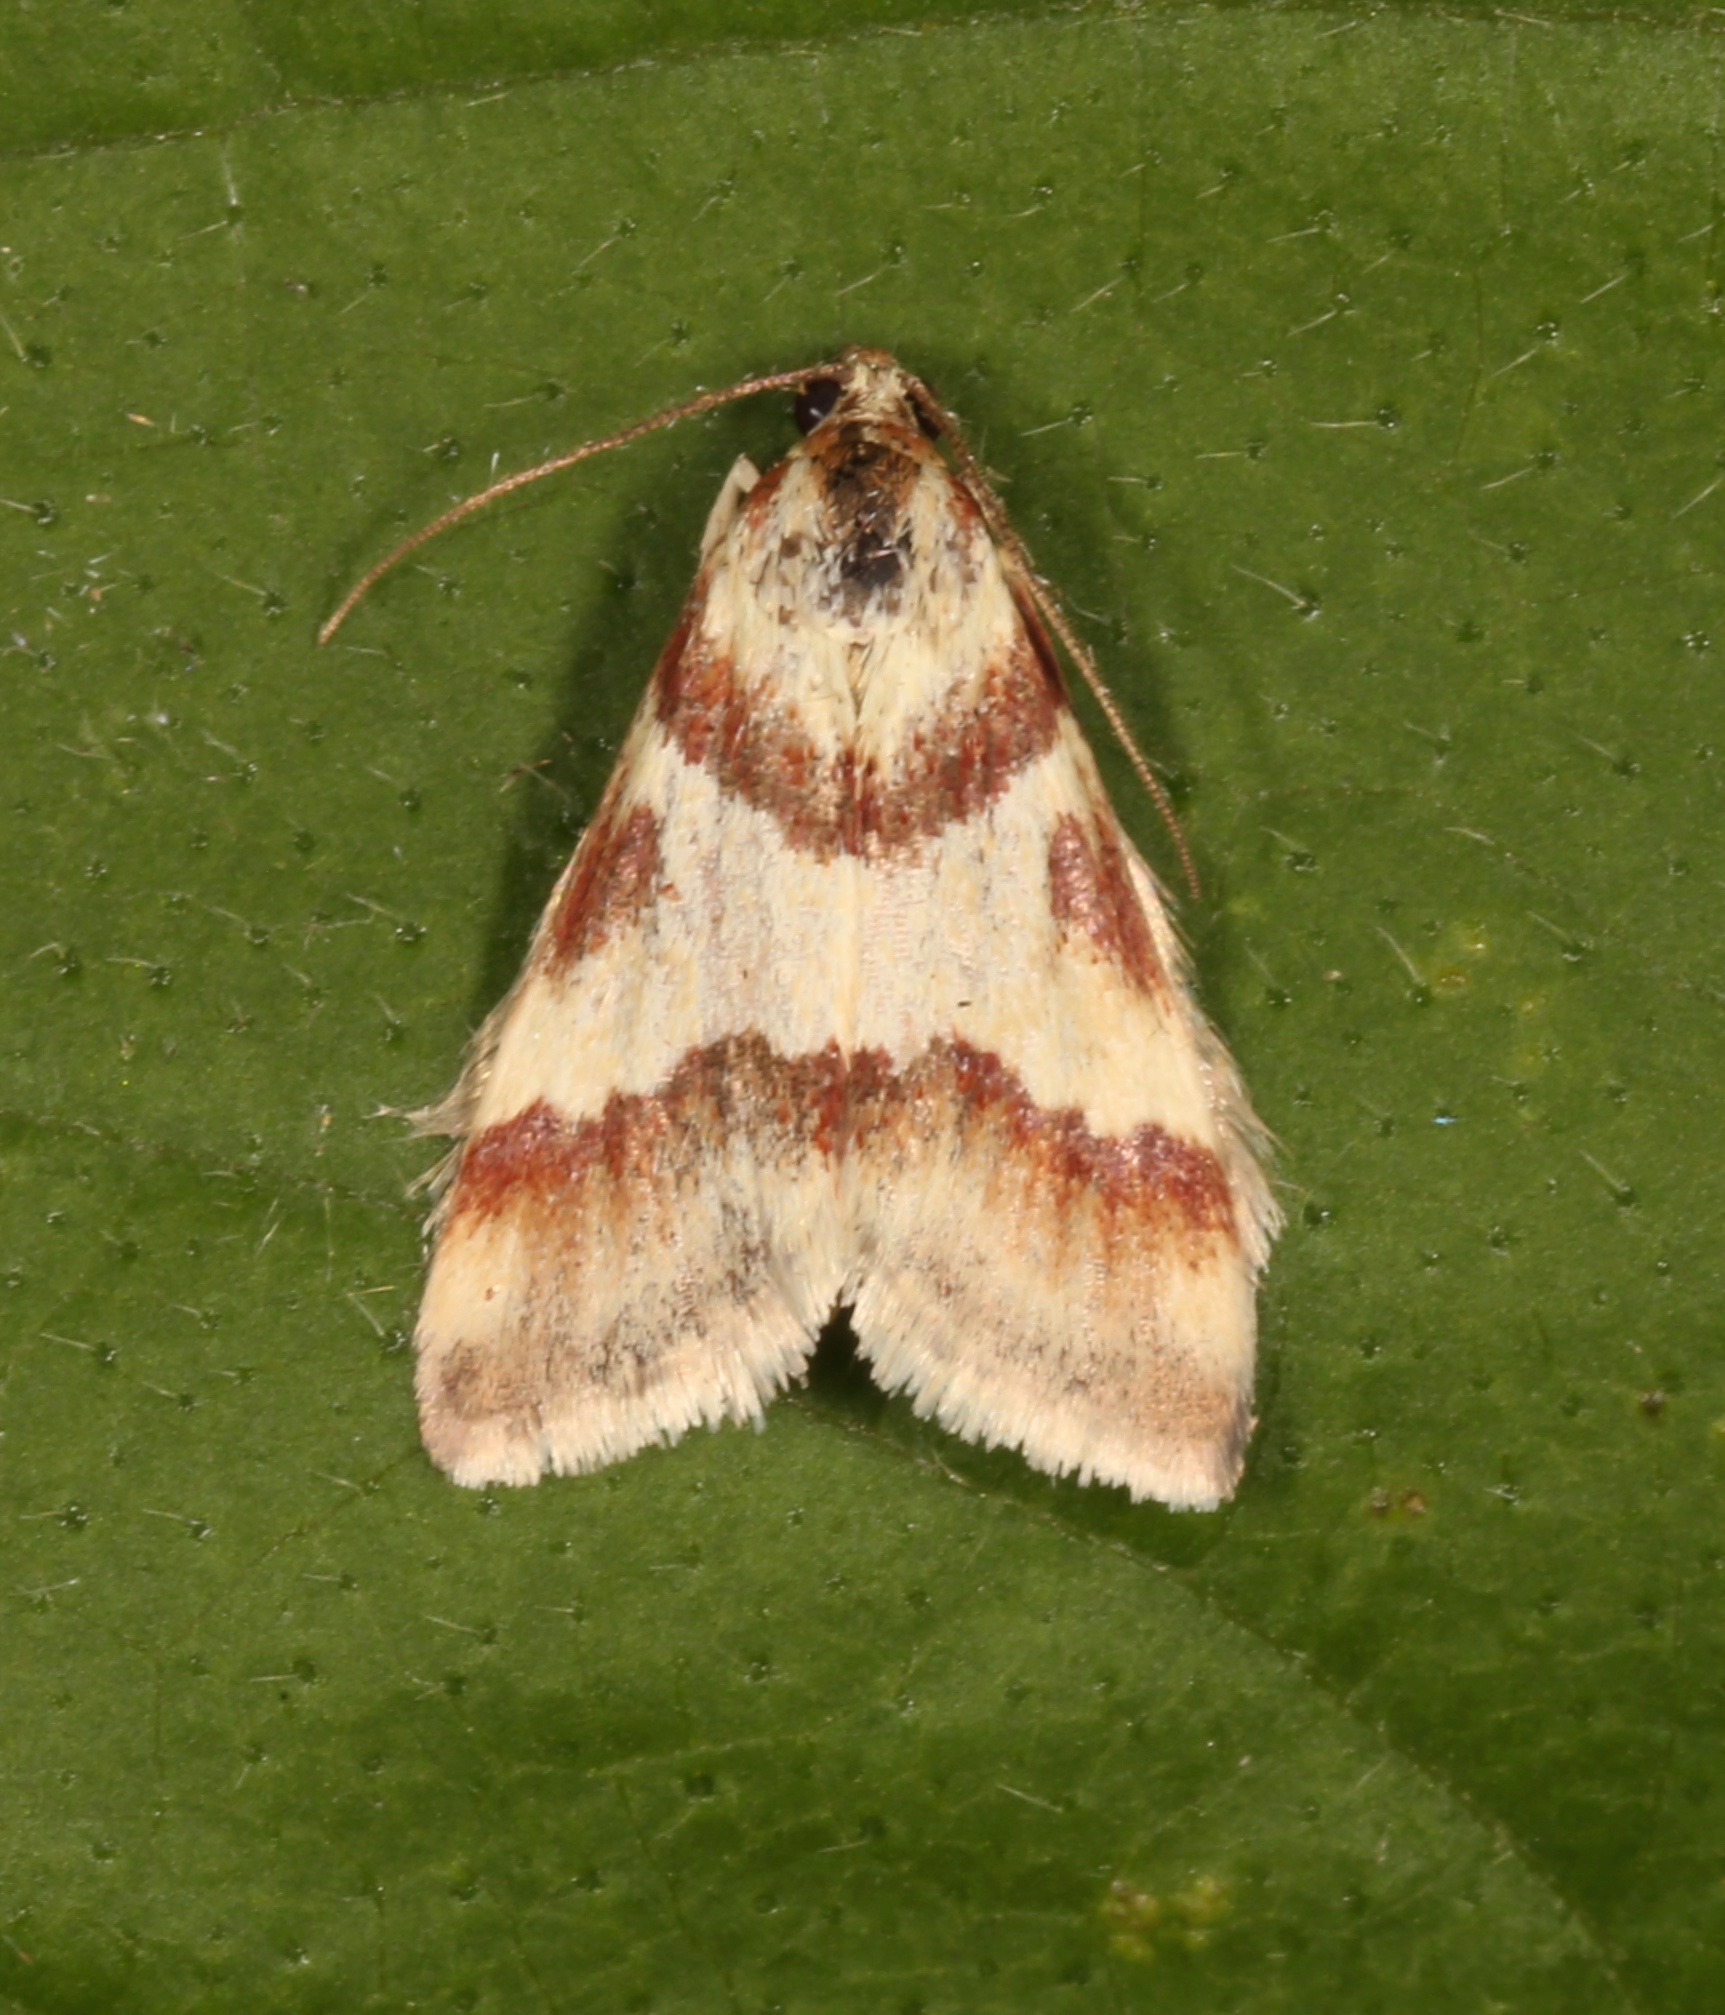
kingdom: Animalia
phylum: Arthropoda
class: Insecta
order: Lepidoptera
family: Crambidae
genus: Noctuelia
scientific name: Noctuelia Mimoschinia rufofascialis
